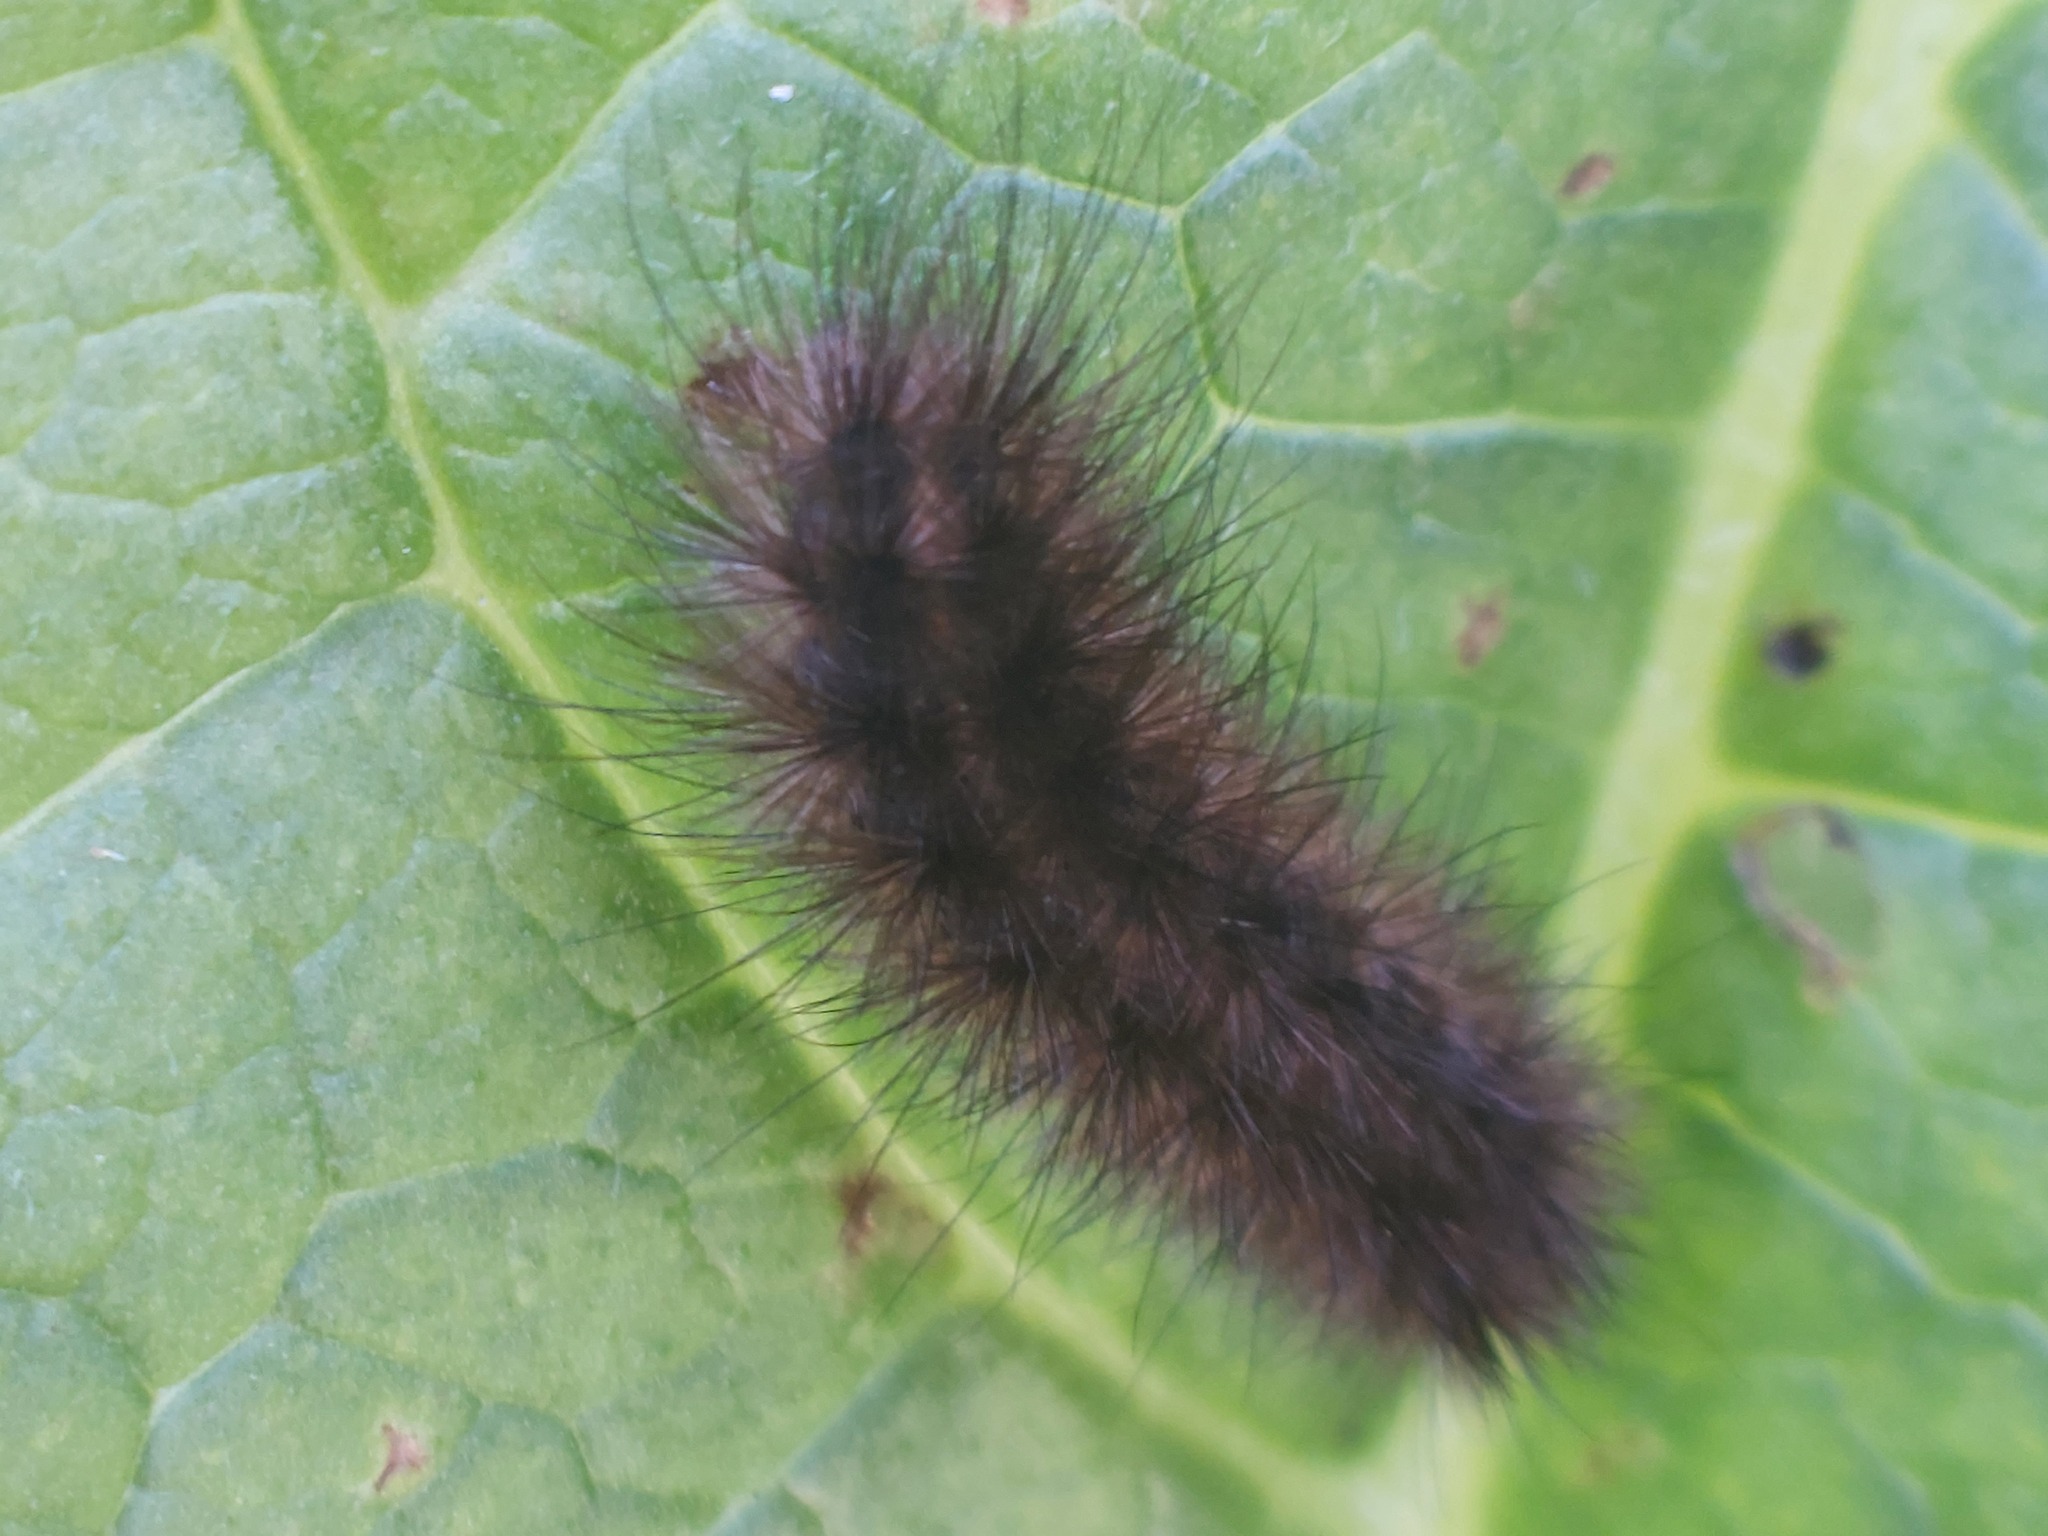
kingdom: Animalia
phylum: Arthropoda
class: Insecta
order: Lepidoptera
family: Erebidae
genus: Spilosoma
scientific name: Spilosoma lubricipeda
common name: White ermine
